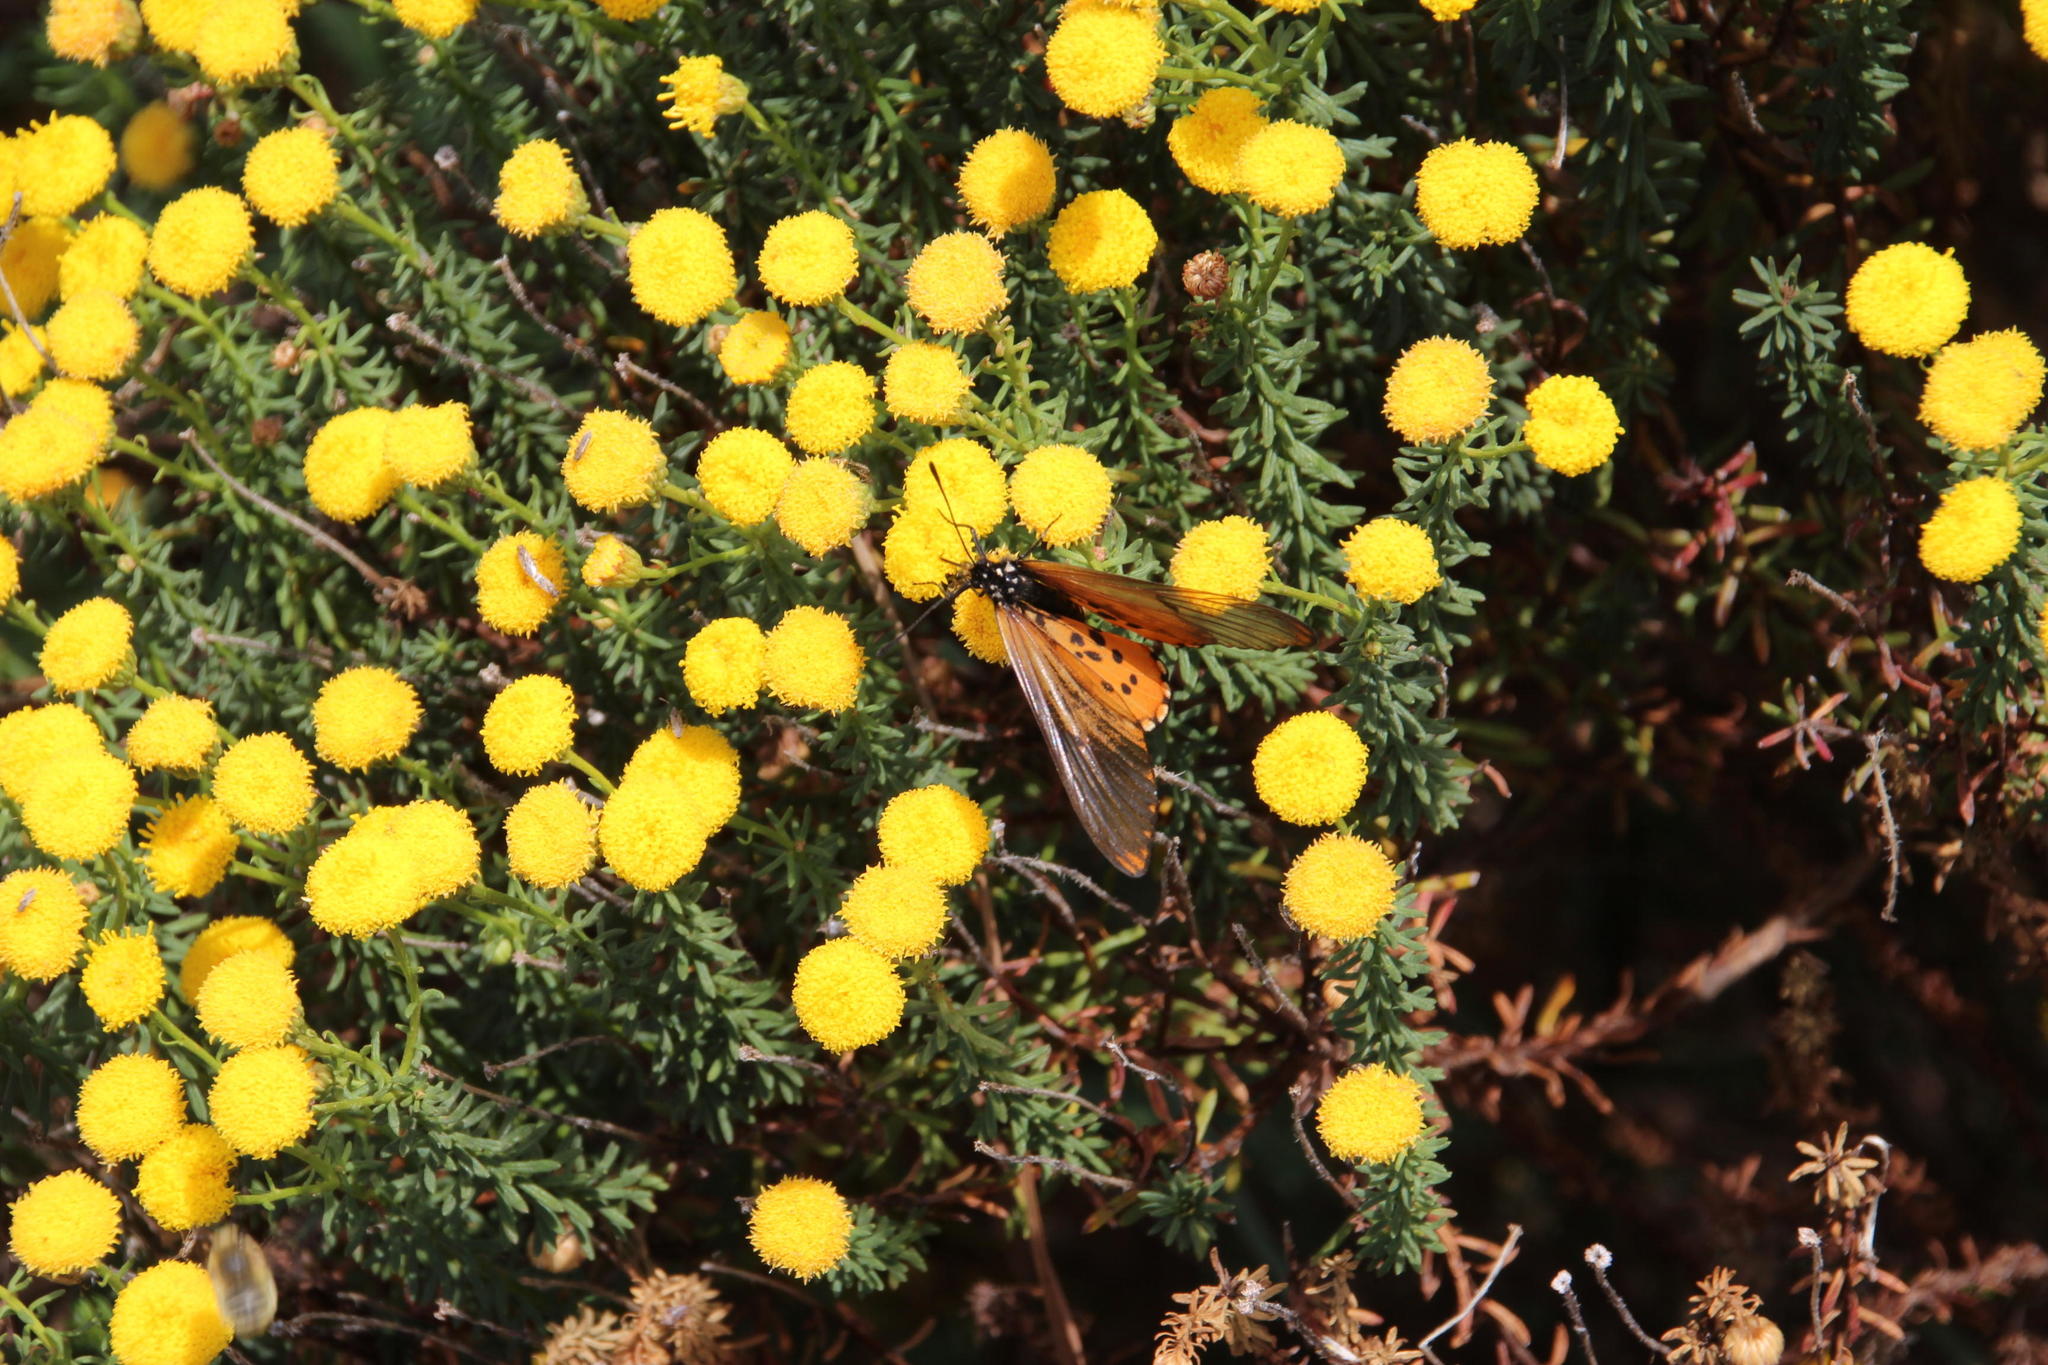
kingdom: Animalia
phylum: Arthropoda
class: Insecta
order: Lepidoptera
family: Nymphalidae
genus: Acraea
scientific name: Acraea horta
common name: Garden acraea
